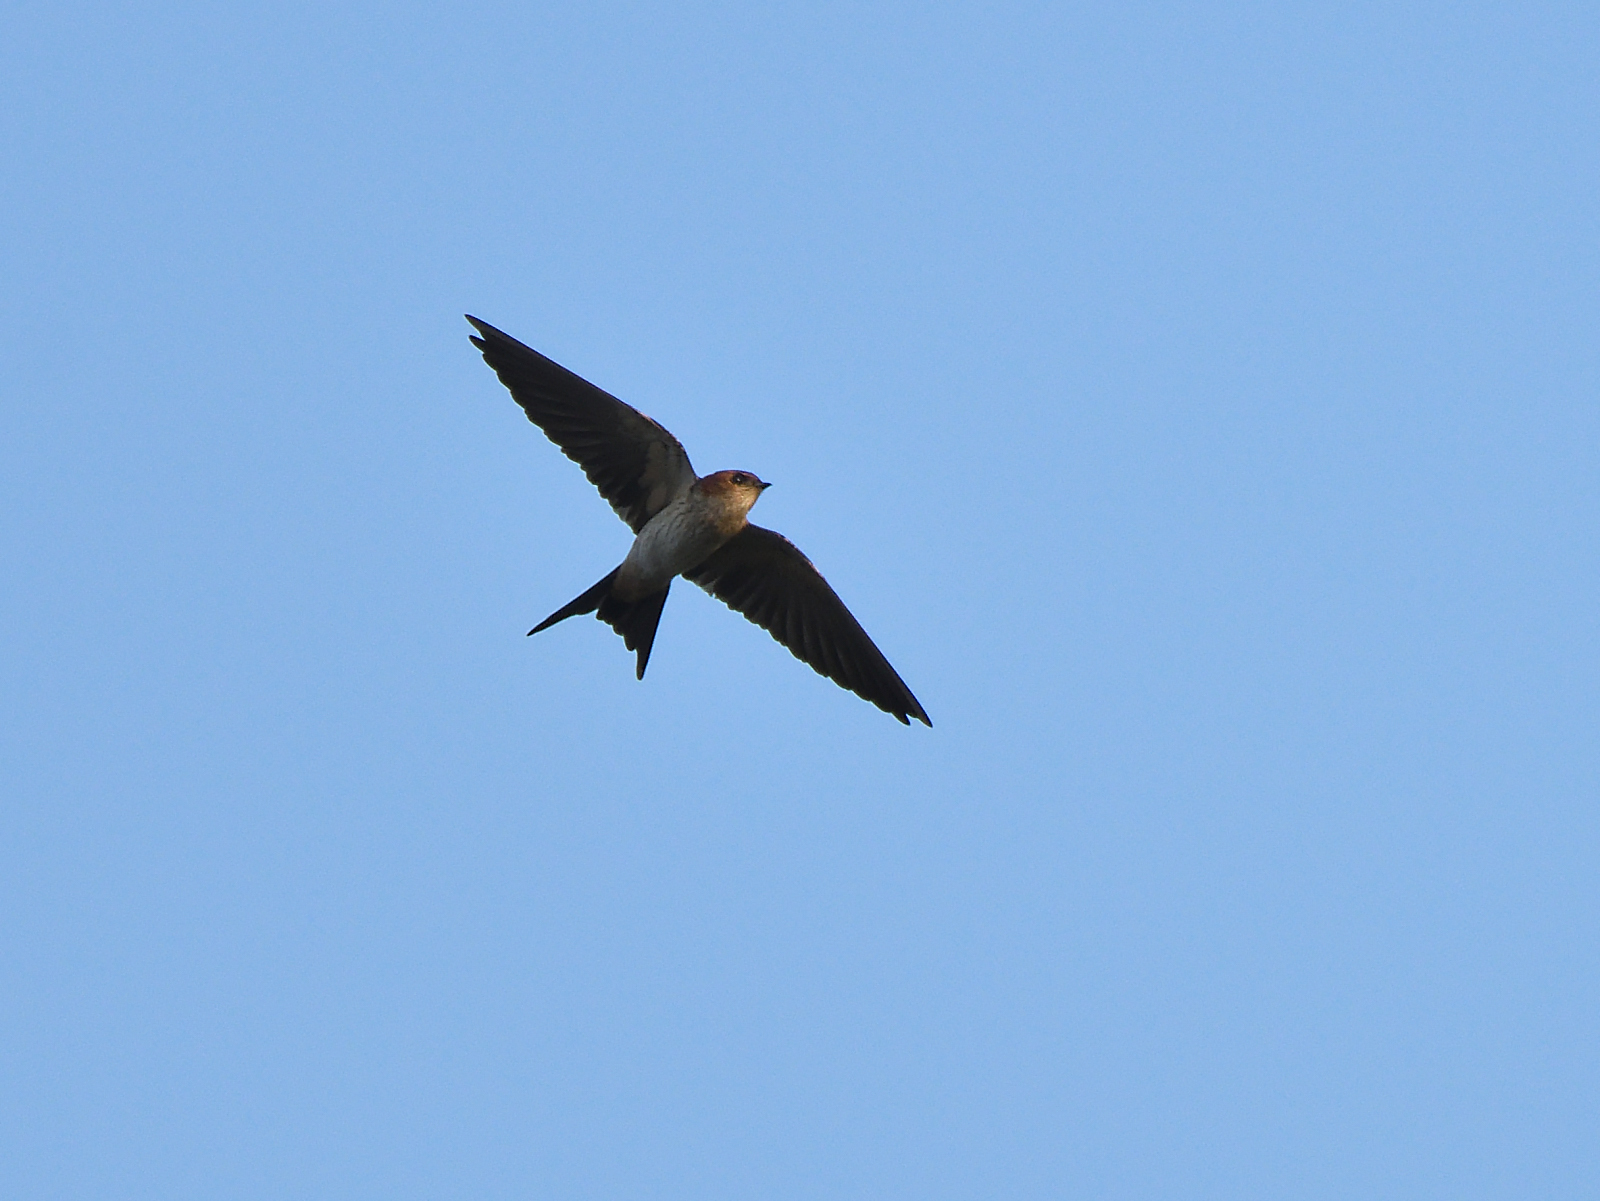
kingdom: Animalia
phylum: Chordata
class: Aves
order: Passeriformes
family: Hirundinidae
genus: Cecropis
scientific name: Cecropis daurica
